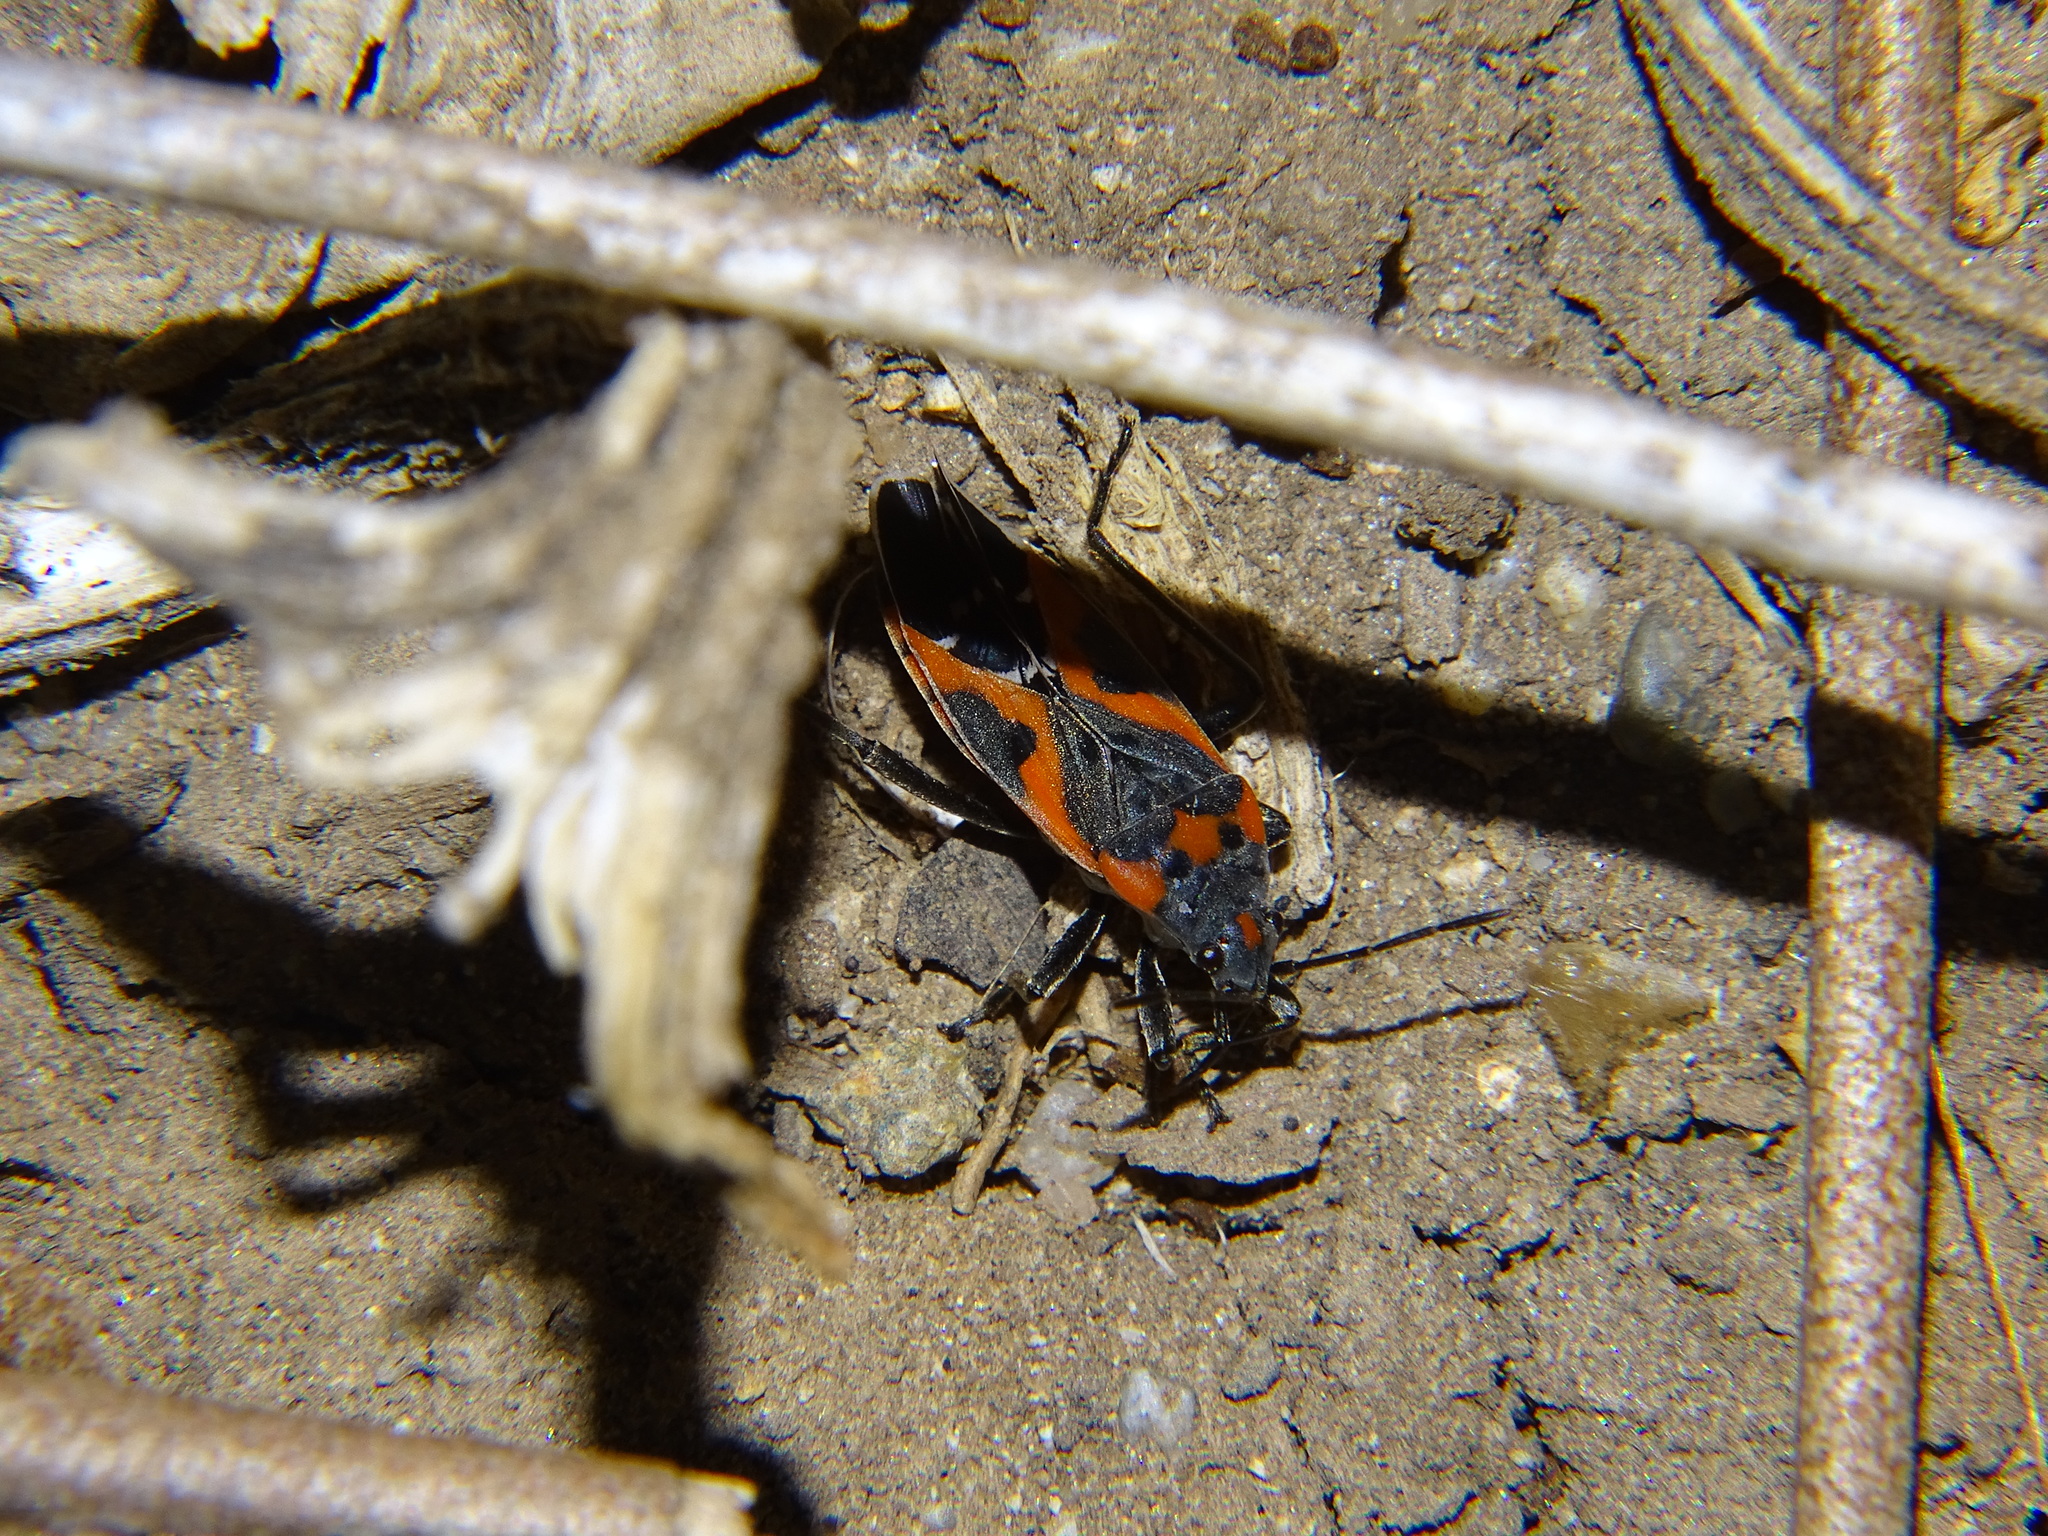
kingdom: Animalia
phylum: Arthropoda
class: Insecta
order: Hemiptera
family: Lygaeidae
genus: Lygaeus
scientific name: Lygaeus kalmii
